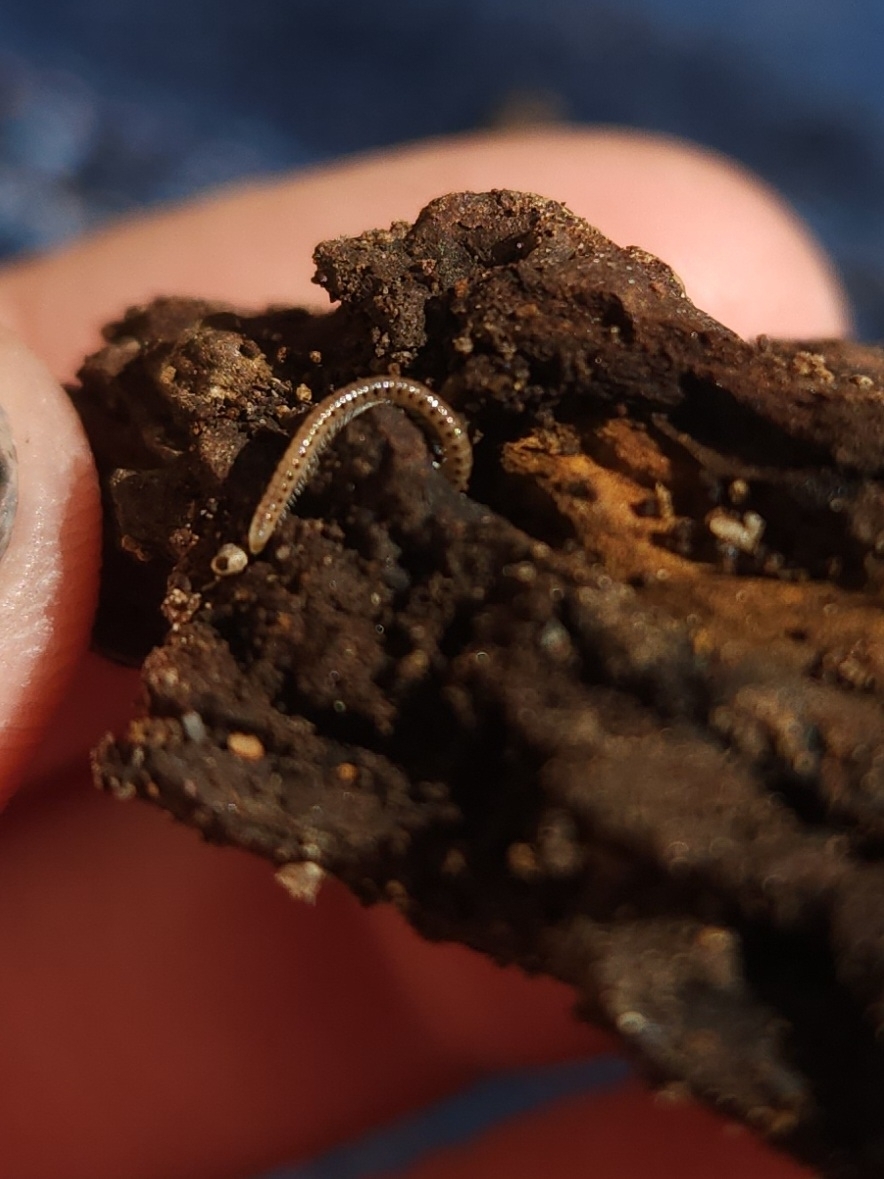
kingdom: Animalia
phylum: Arthropoda
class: Diplopoda
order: Julida
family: Blaniulidae
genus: Blaniulus
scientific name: Blaniulus guttulatus
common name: Spotted snake millipede
